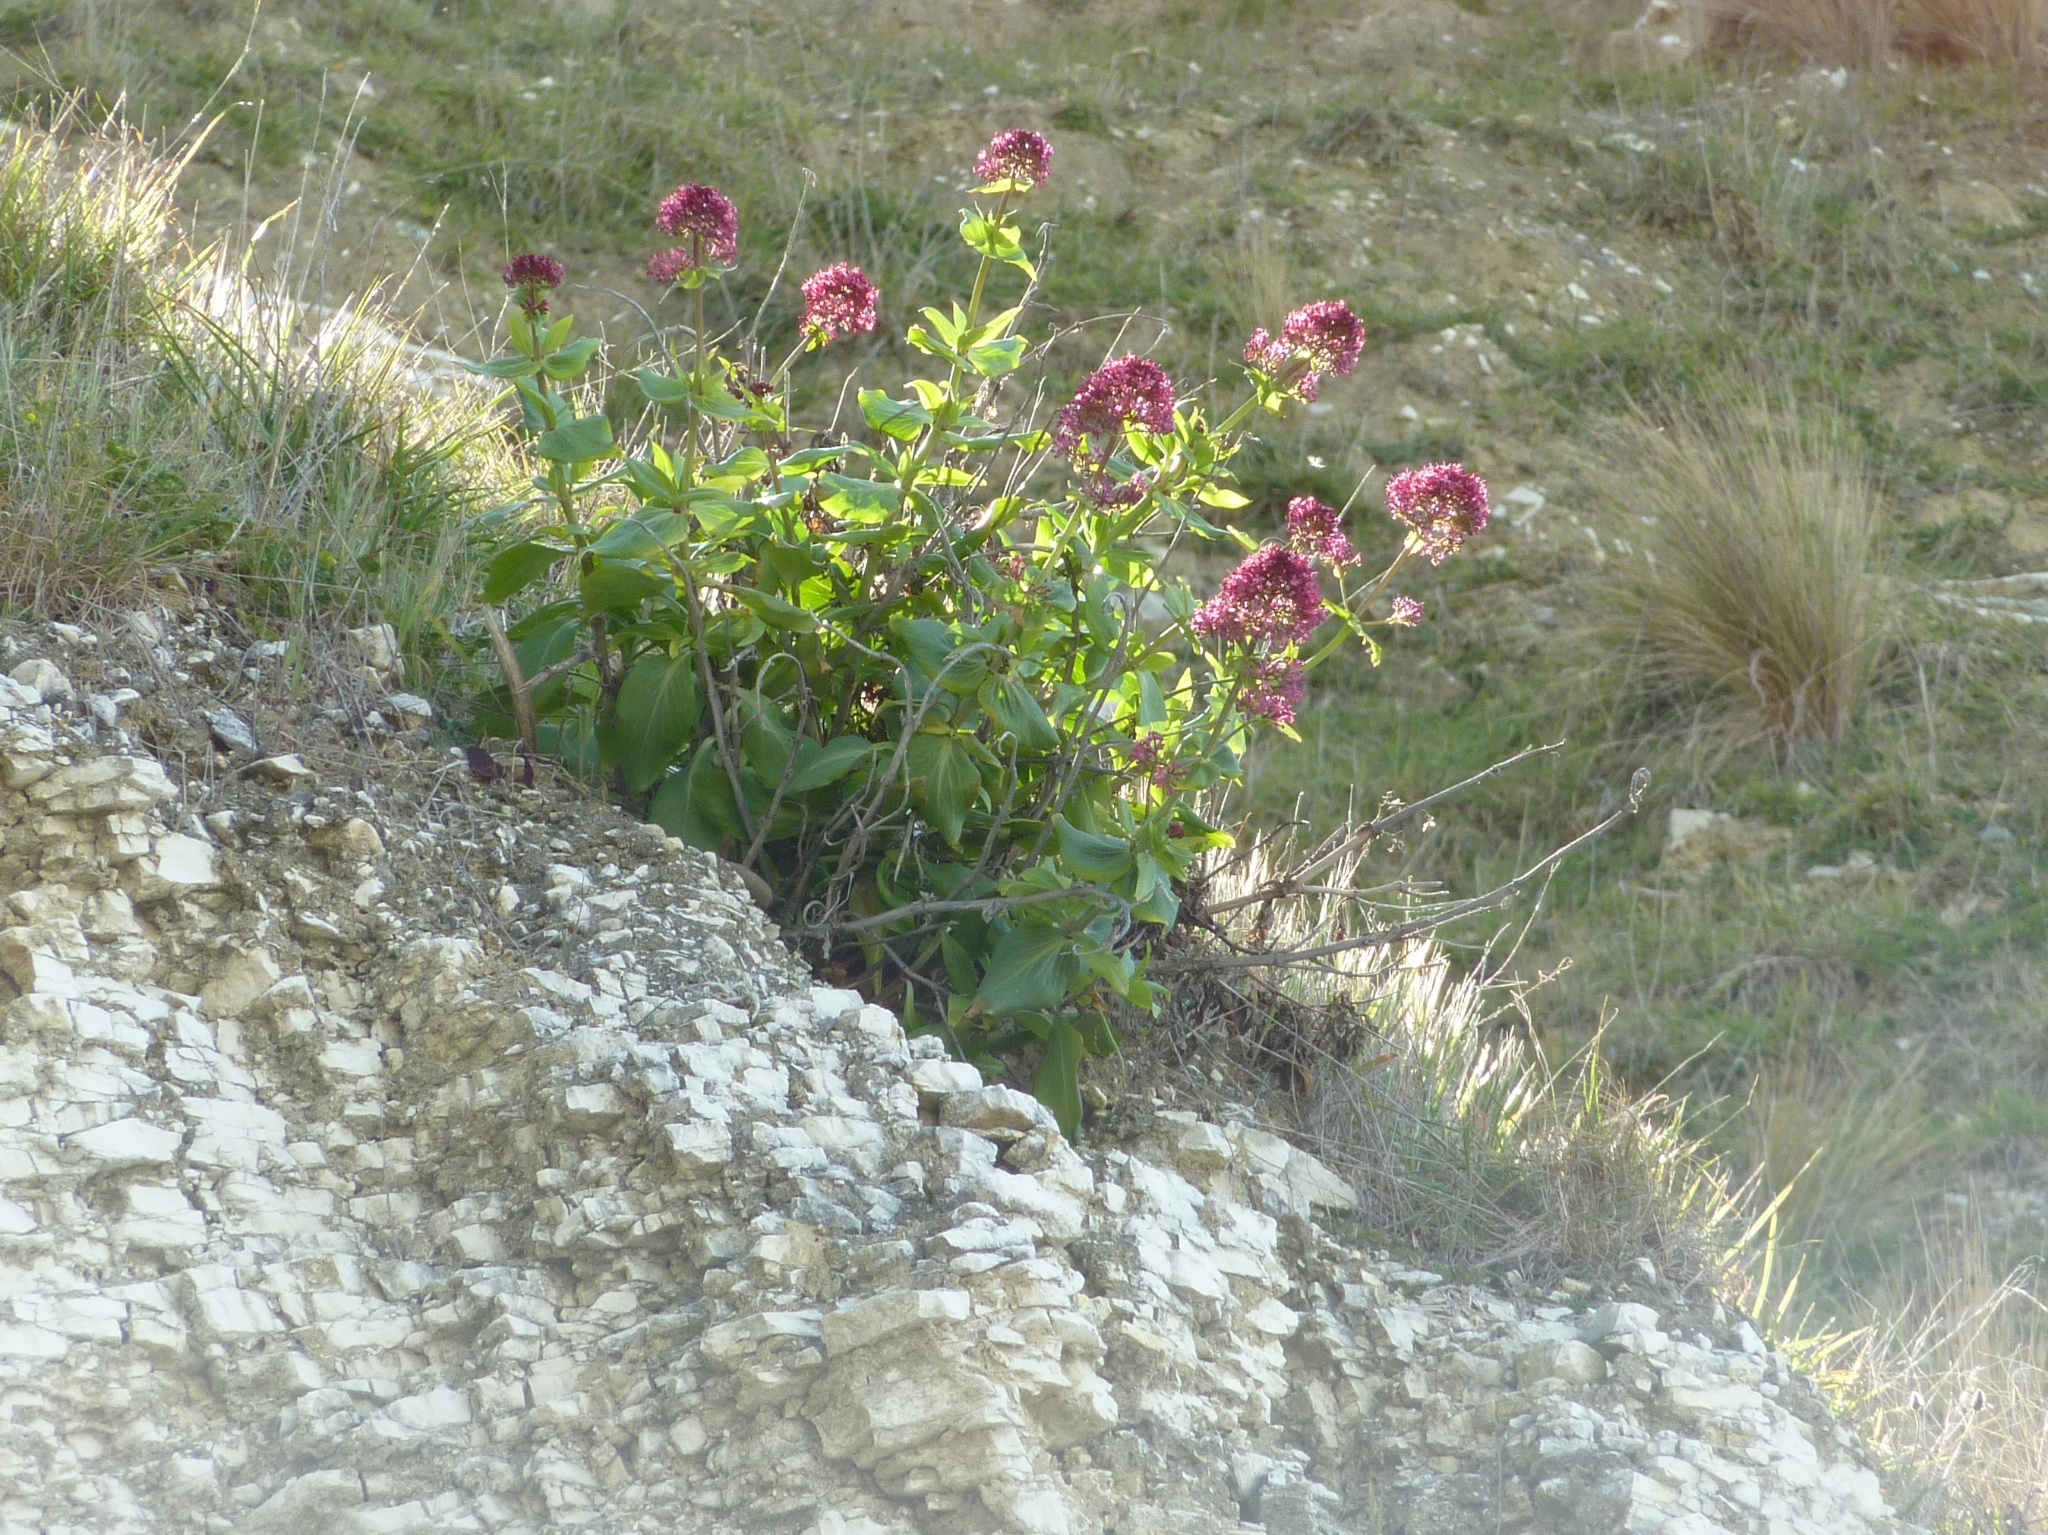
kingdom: Plantae
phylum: Tracheophyta
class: Magnoliopsida
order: Dipsacales
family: Caprifoliaceae
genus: Centranthus
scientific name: Centranthus ruber
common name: Red valerian
